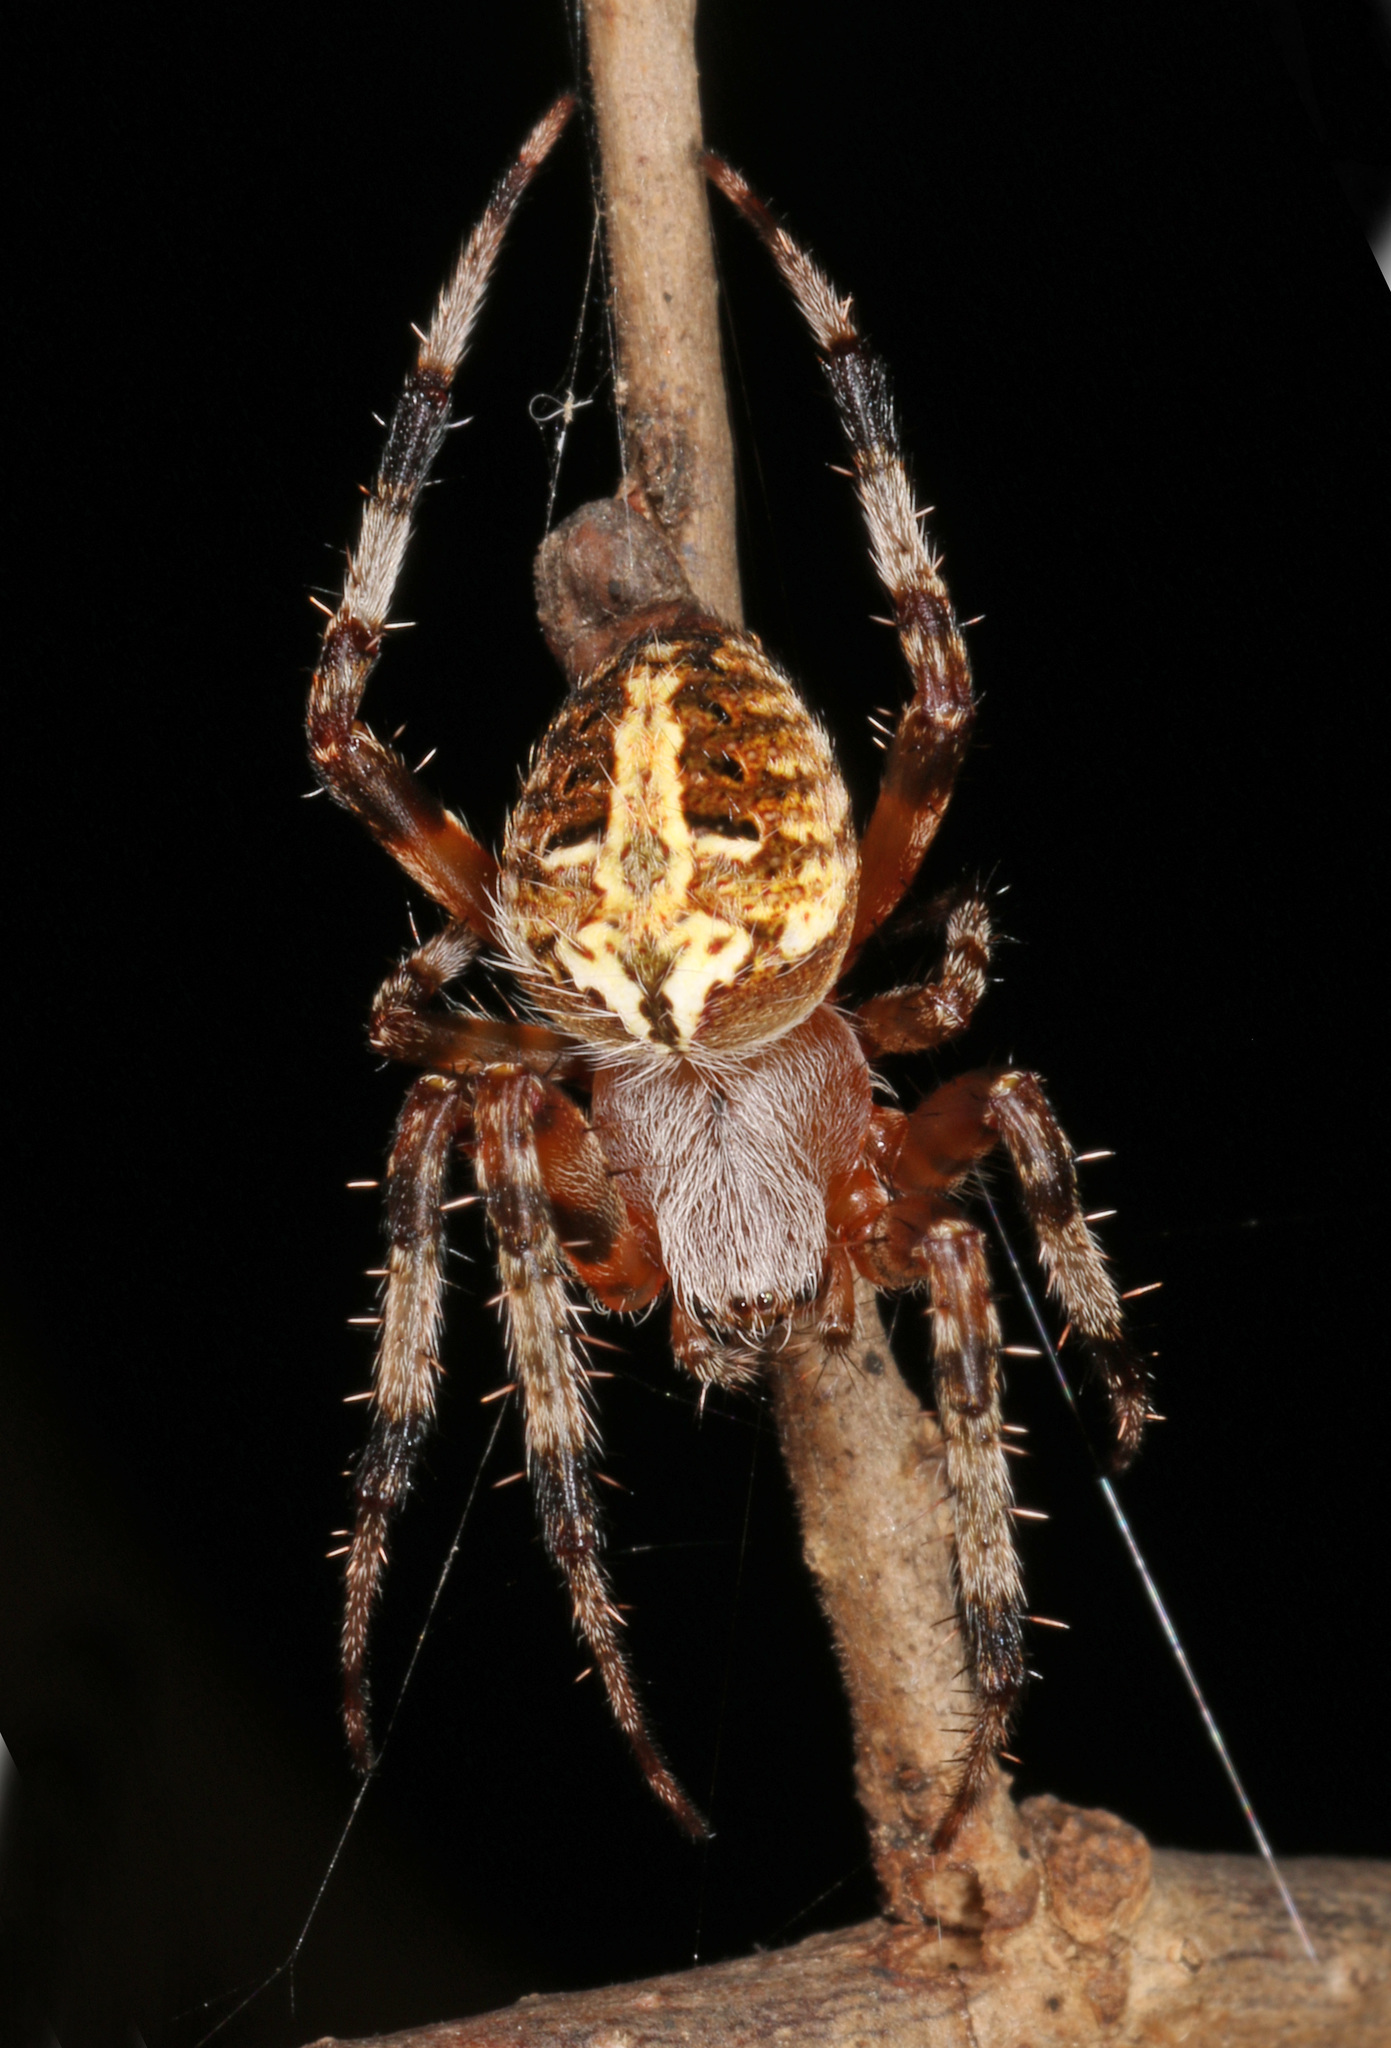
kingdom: Animalia
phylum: Arthropoda
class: Arachnida
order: Araneae
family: Araneidae
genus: Neoscona
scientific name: Neoscona arabesca
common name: Orb weavers
